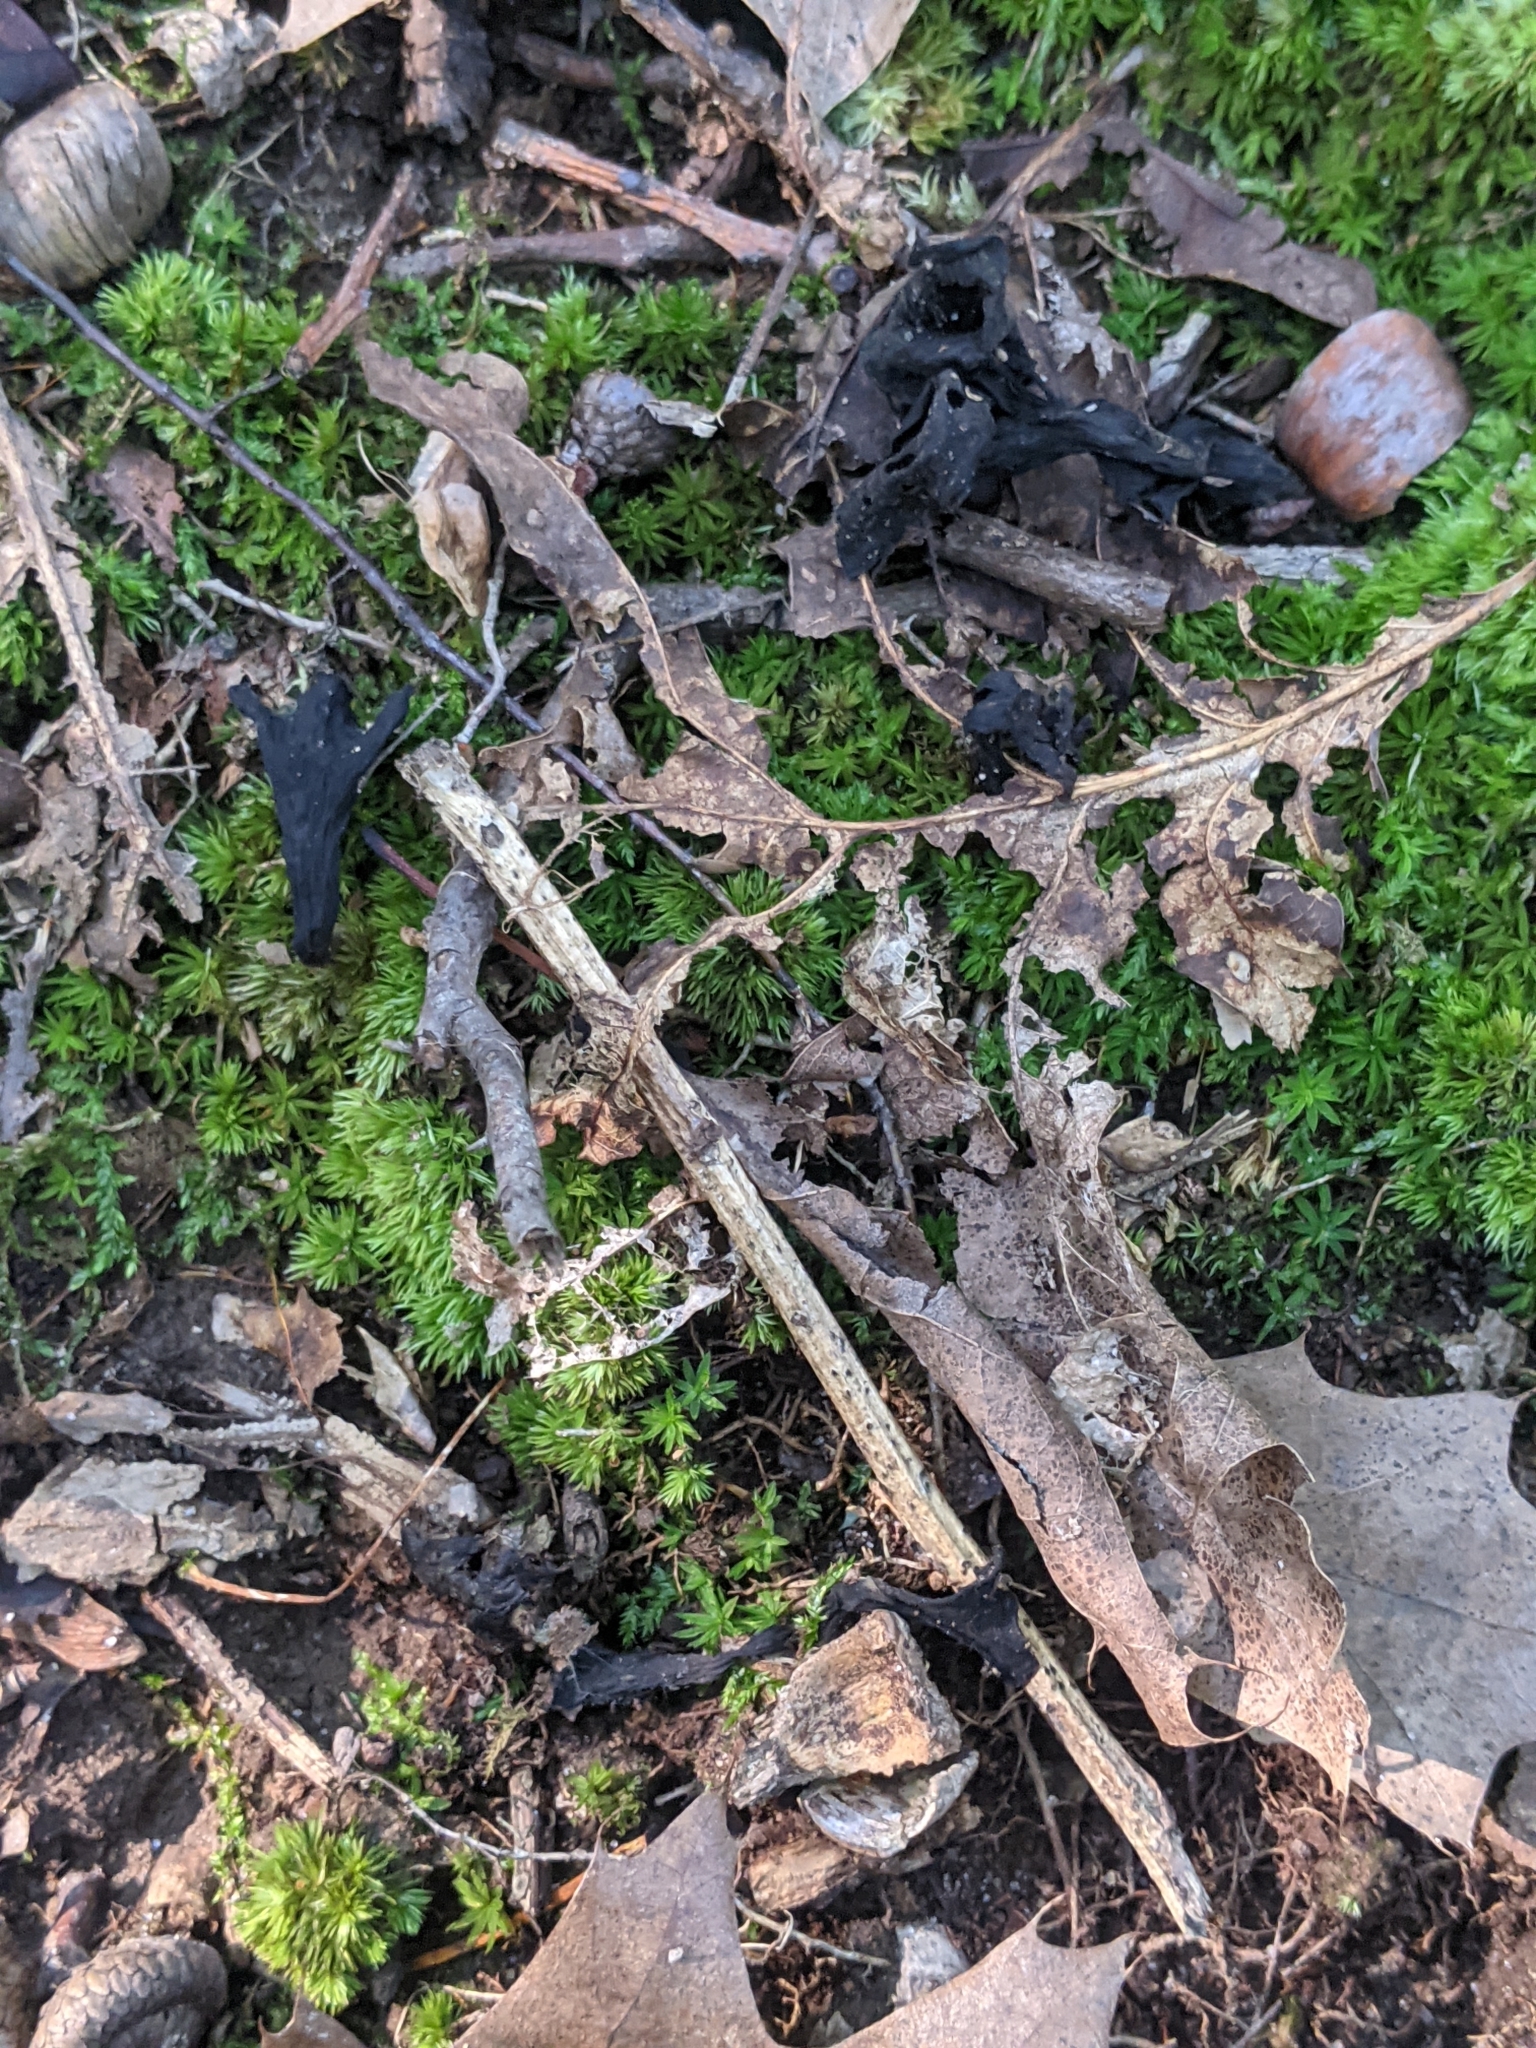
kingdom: Fungi
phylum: Basidiomycota
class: Agaricomycetes
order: Cantharellales
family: Hydnaceae
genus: Craterellus
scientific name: Craterellus cornucopioides
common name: Horn of plenty
